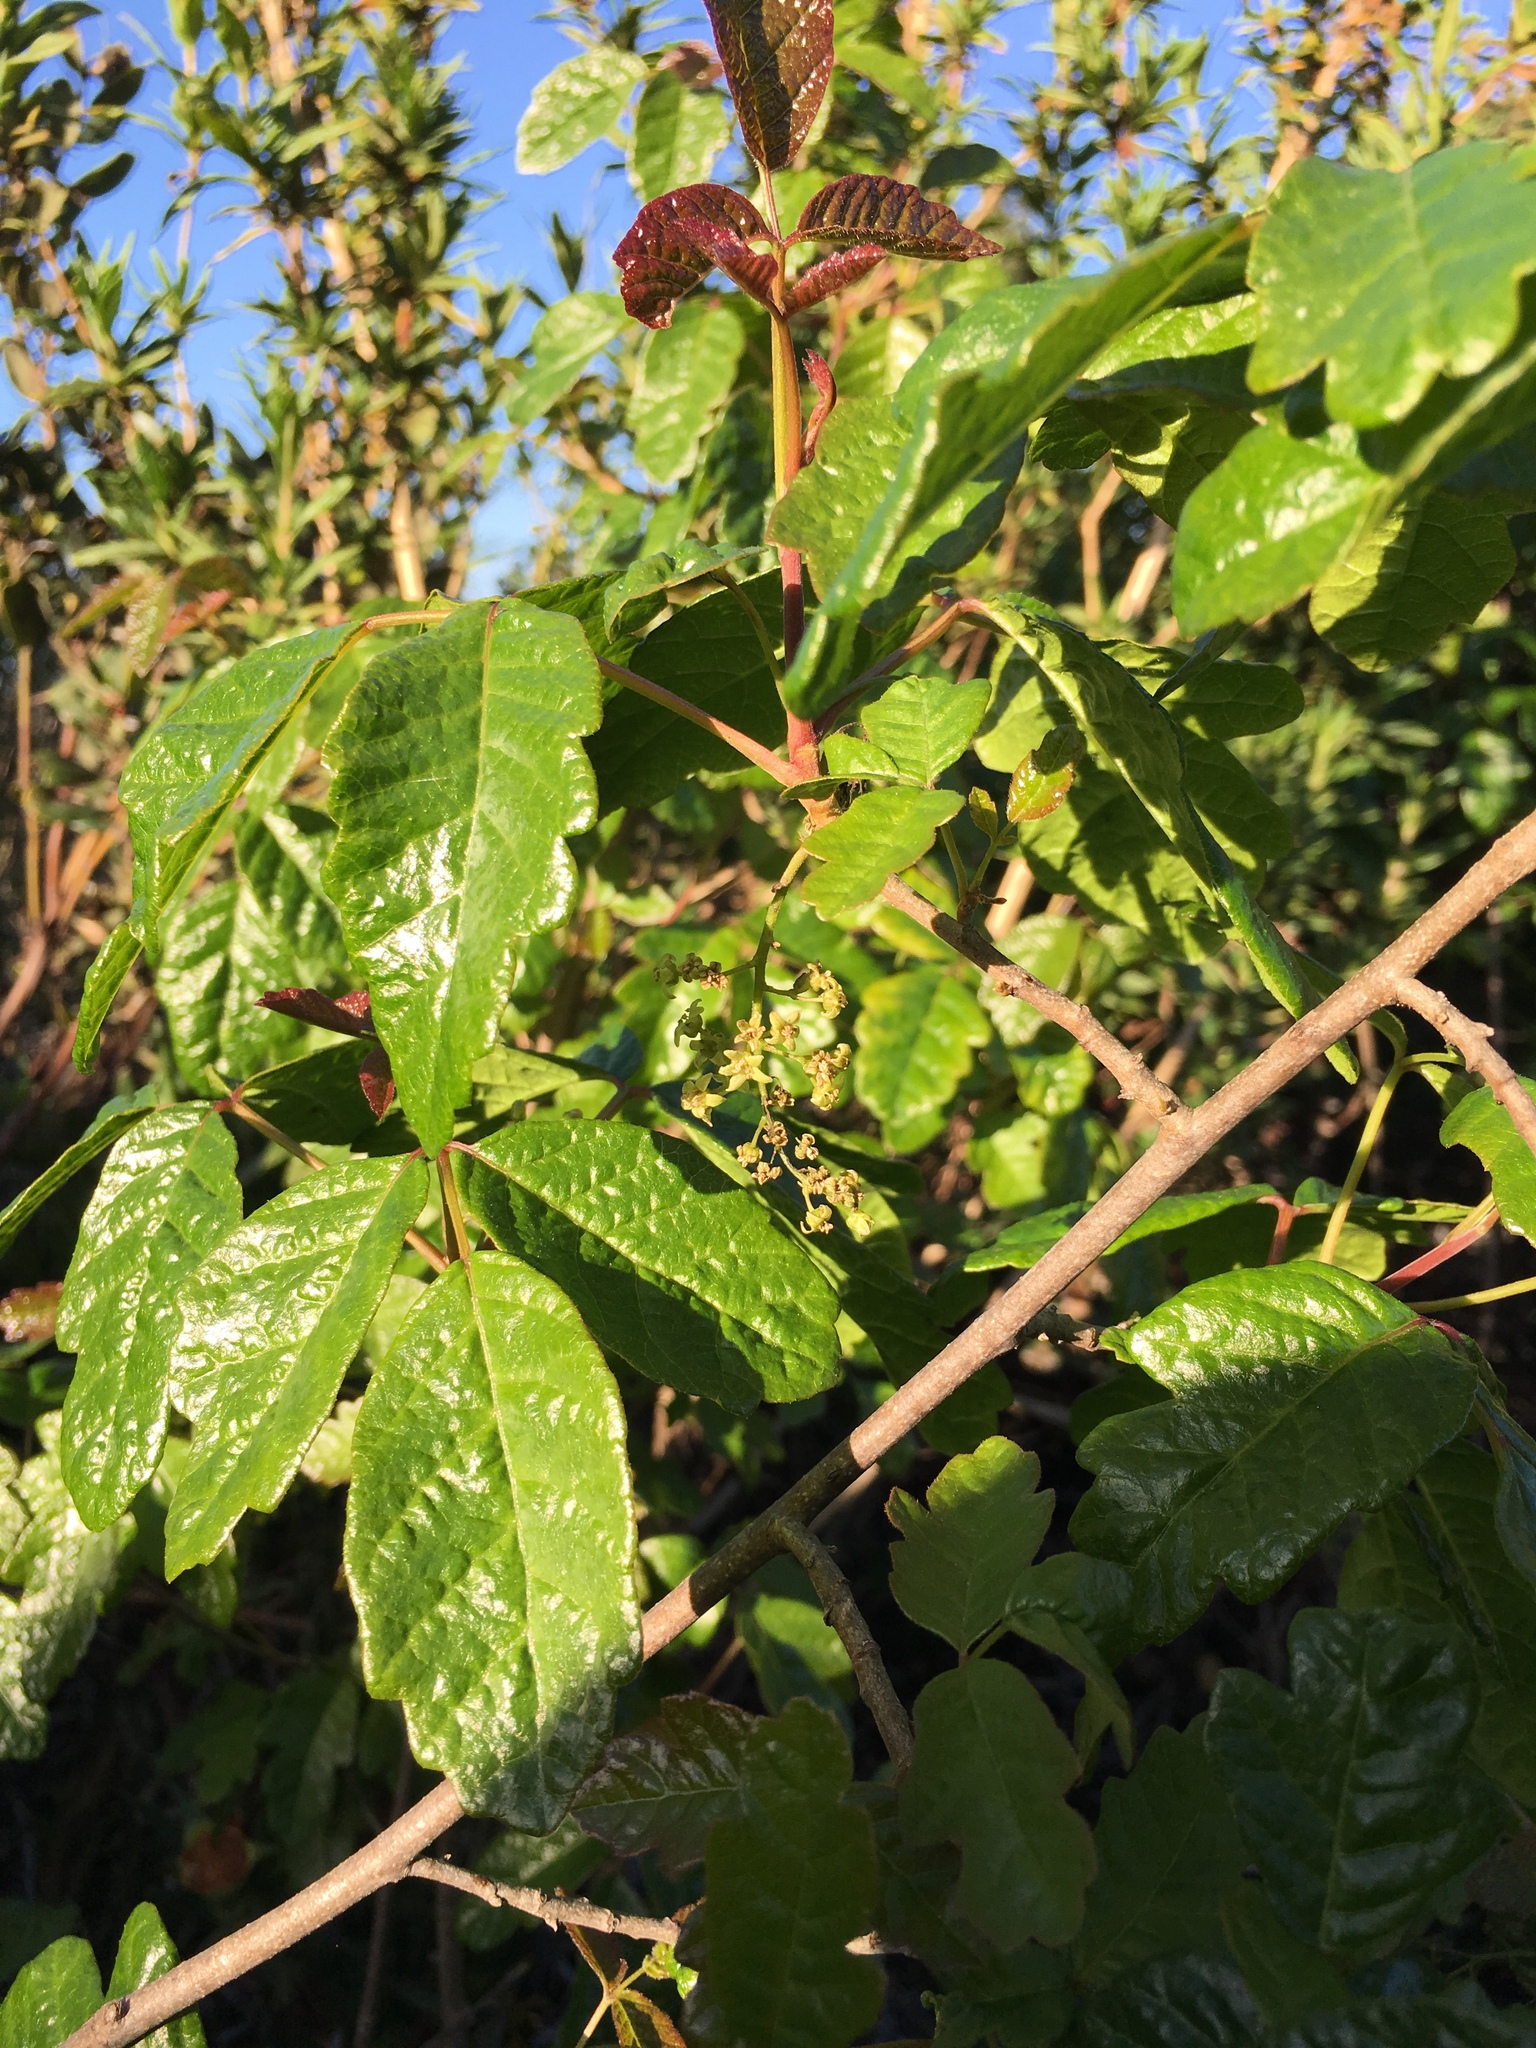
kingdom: Plantae
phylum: Tracheophyta
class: Magnoliopsida
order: Sapindales
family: Anacardiaceae
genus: Toxicodendron
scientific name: Toxicodendron diversilobum
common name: Pacific poison-oak
